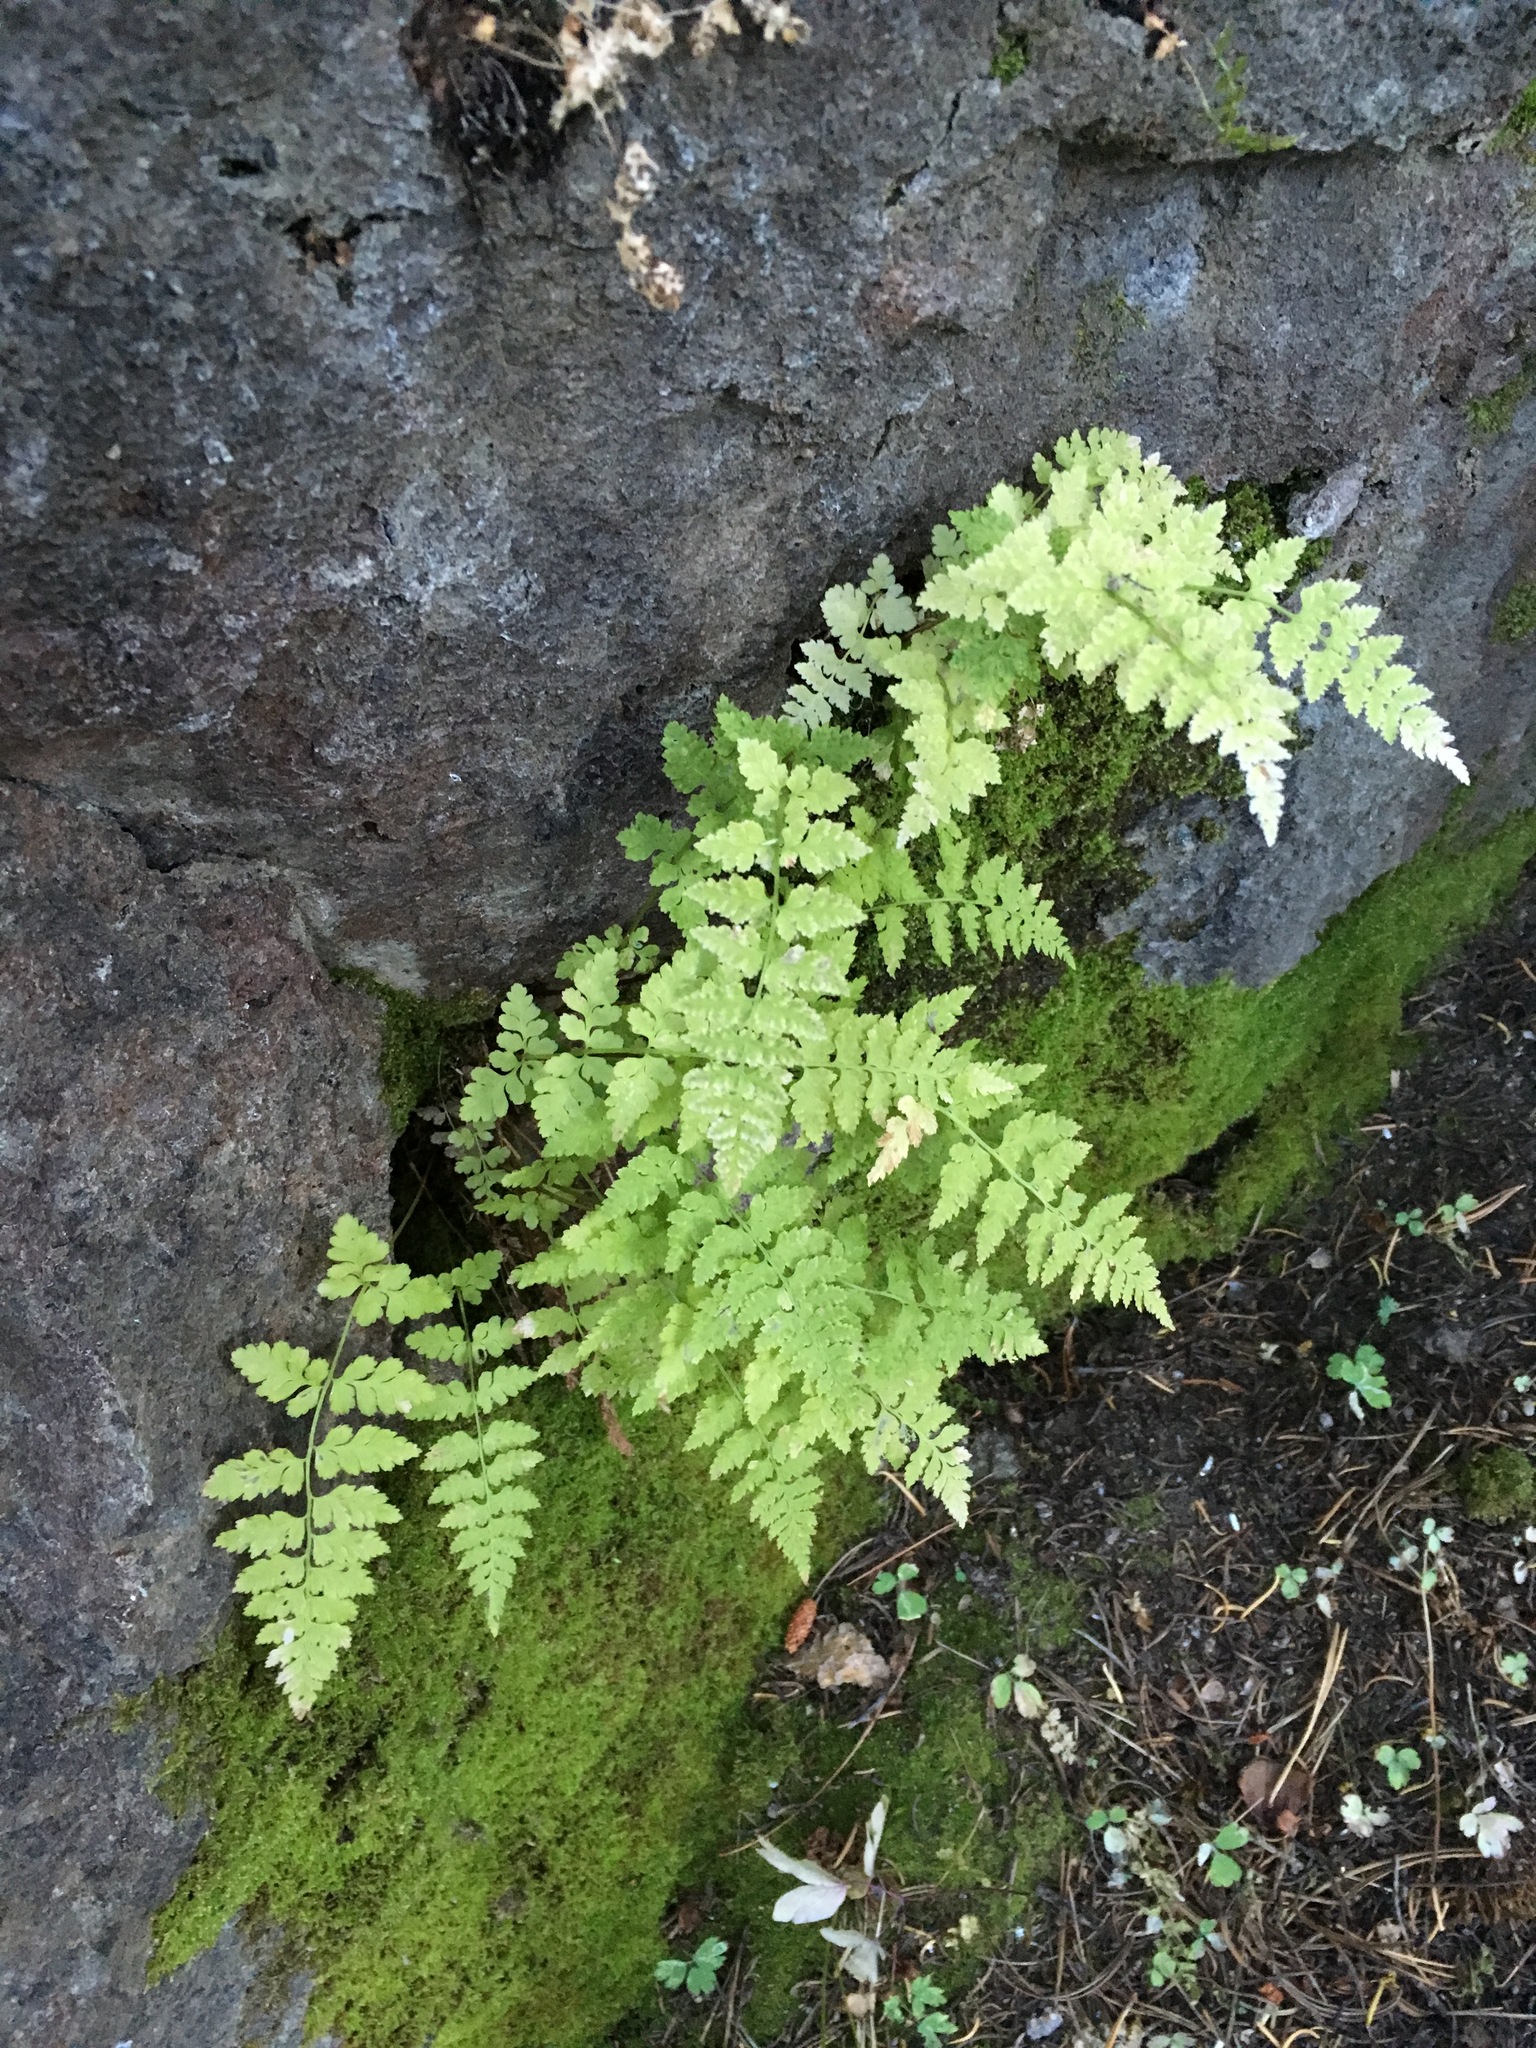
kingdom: Plantae
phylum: Tracheophyta
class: Polypodiopsida
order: Polypodiales
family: Cystopteridaceae
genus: Cystopteris
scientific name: Cystopteris fragilis
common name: Brittle bladder fern
